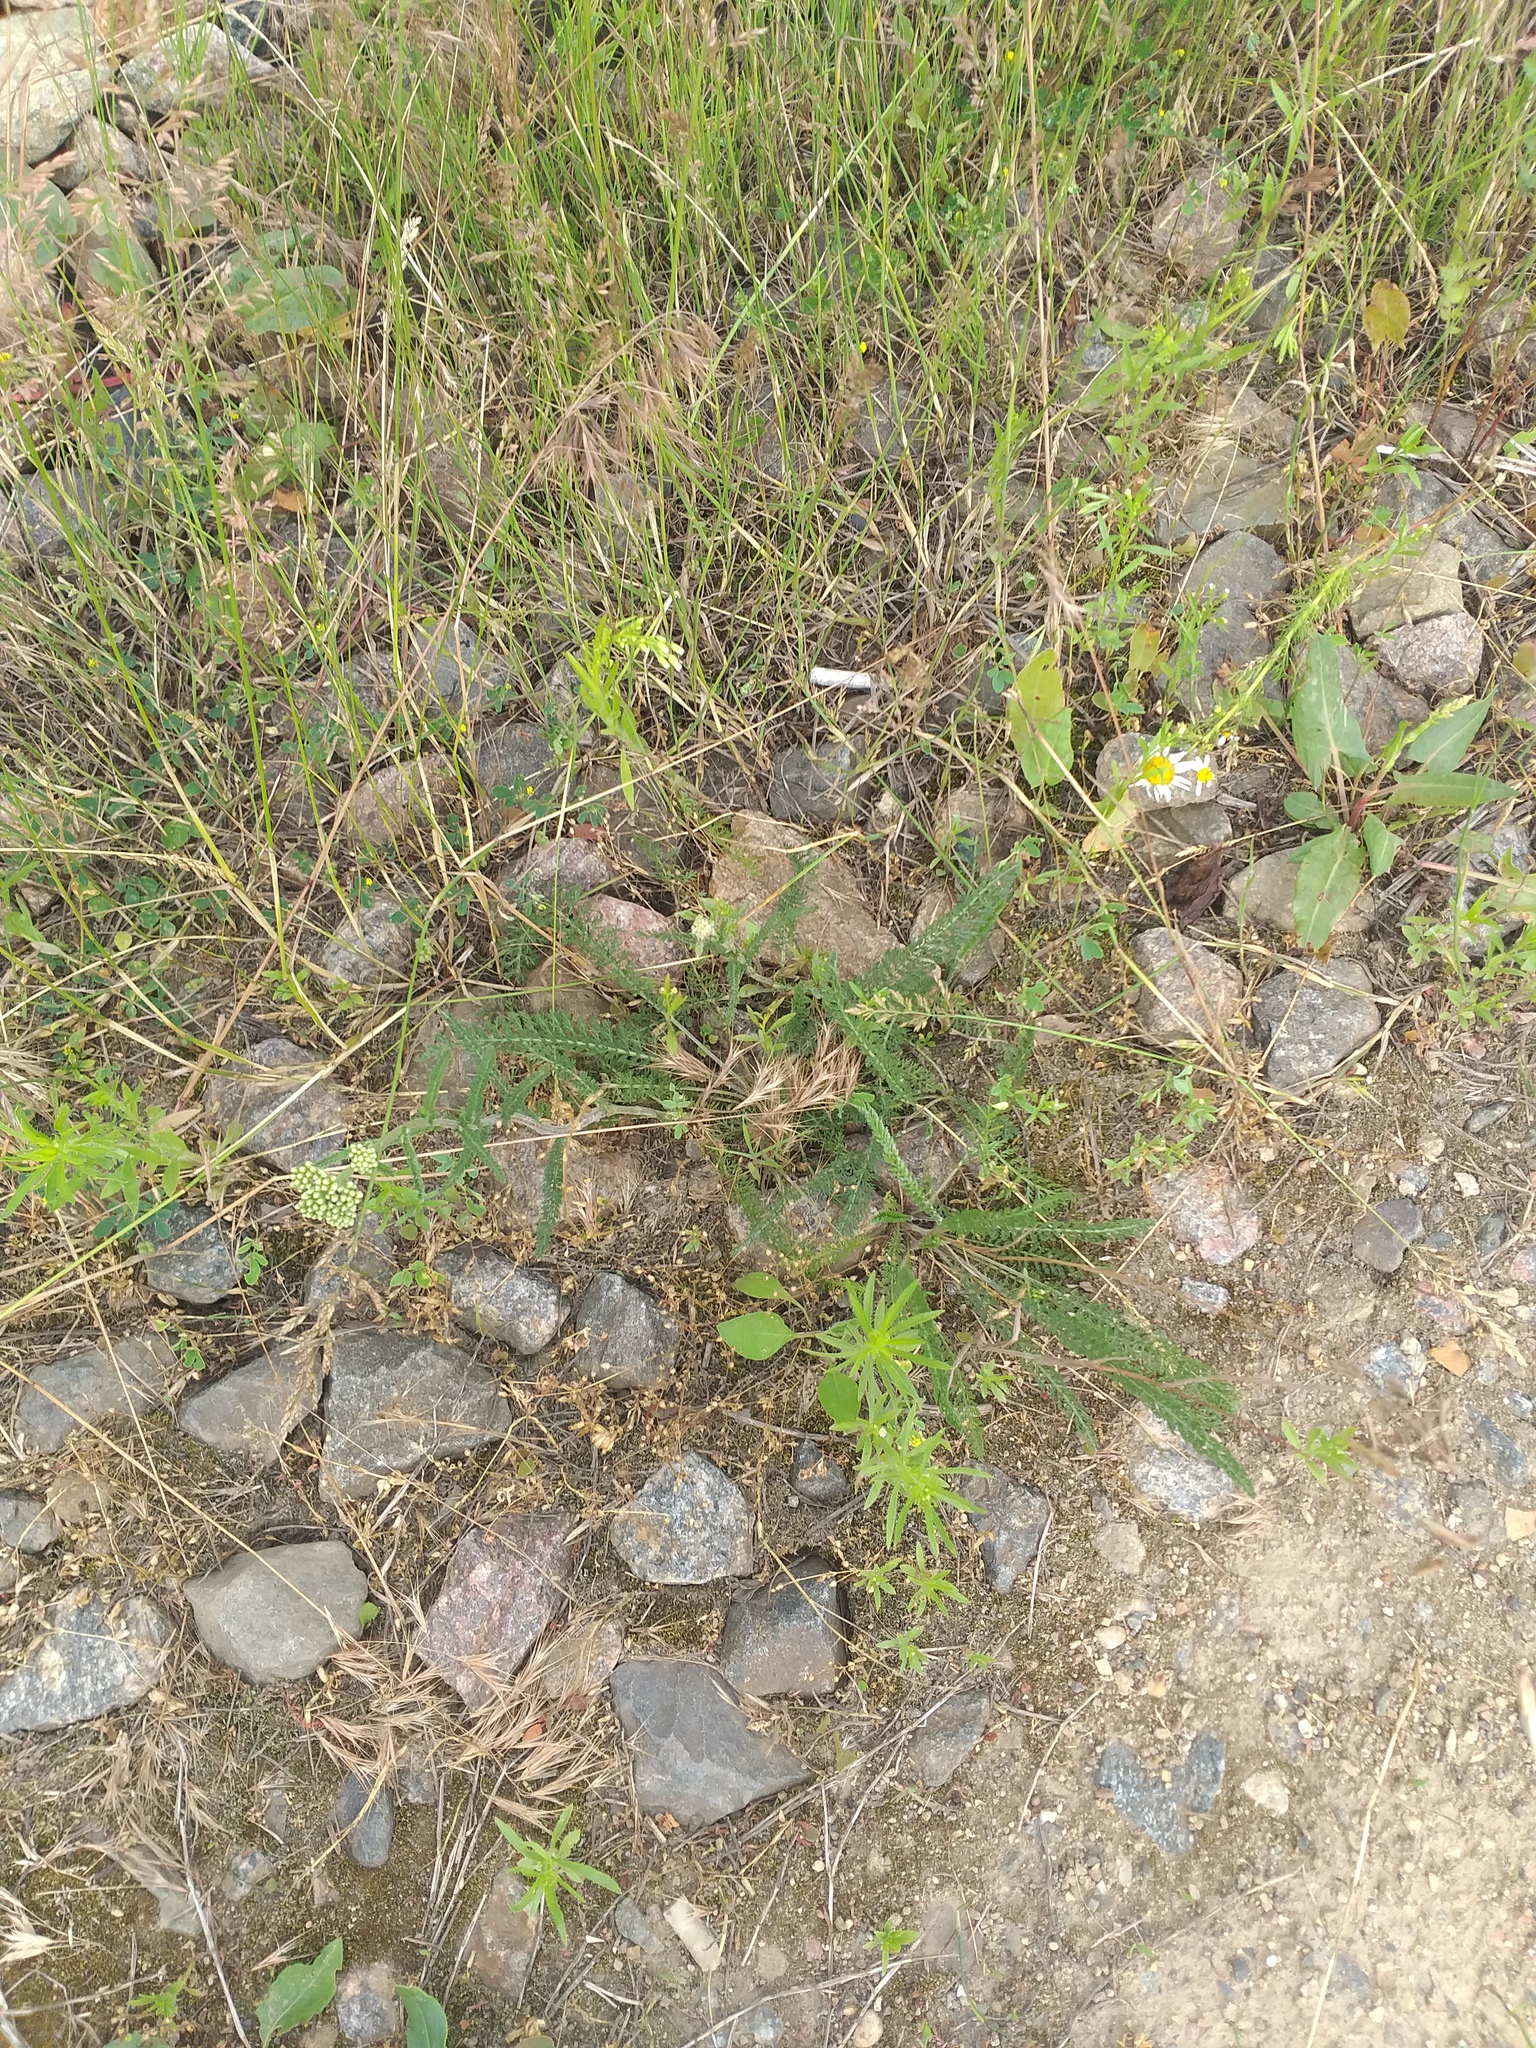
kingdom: Plantae
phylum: Tracheophyta
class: Liliopsida
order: Poales
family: Poaceae
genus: Bromus
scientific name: Bromus tectorum
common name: Cheatgrass
